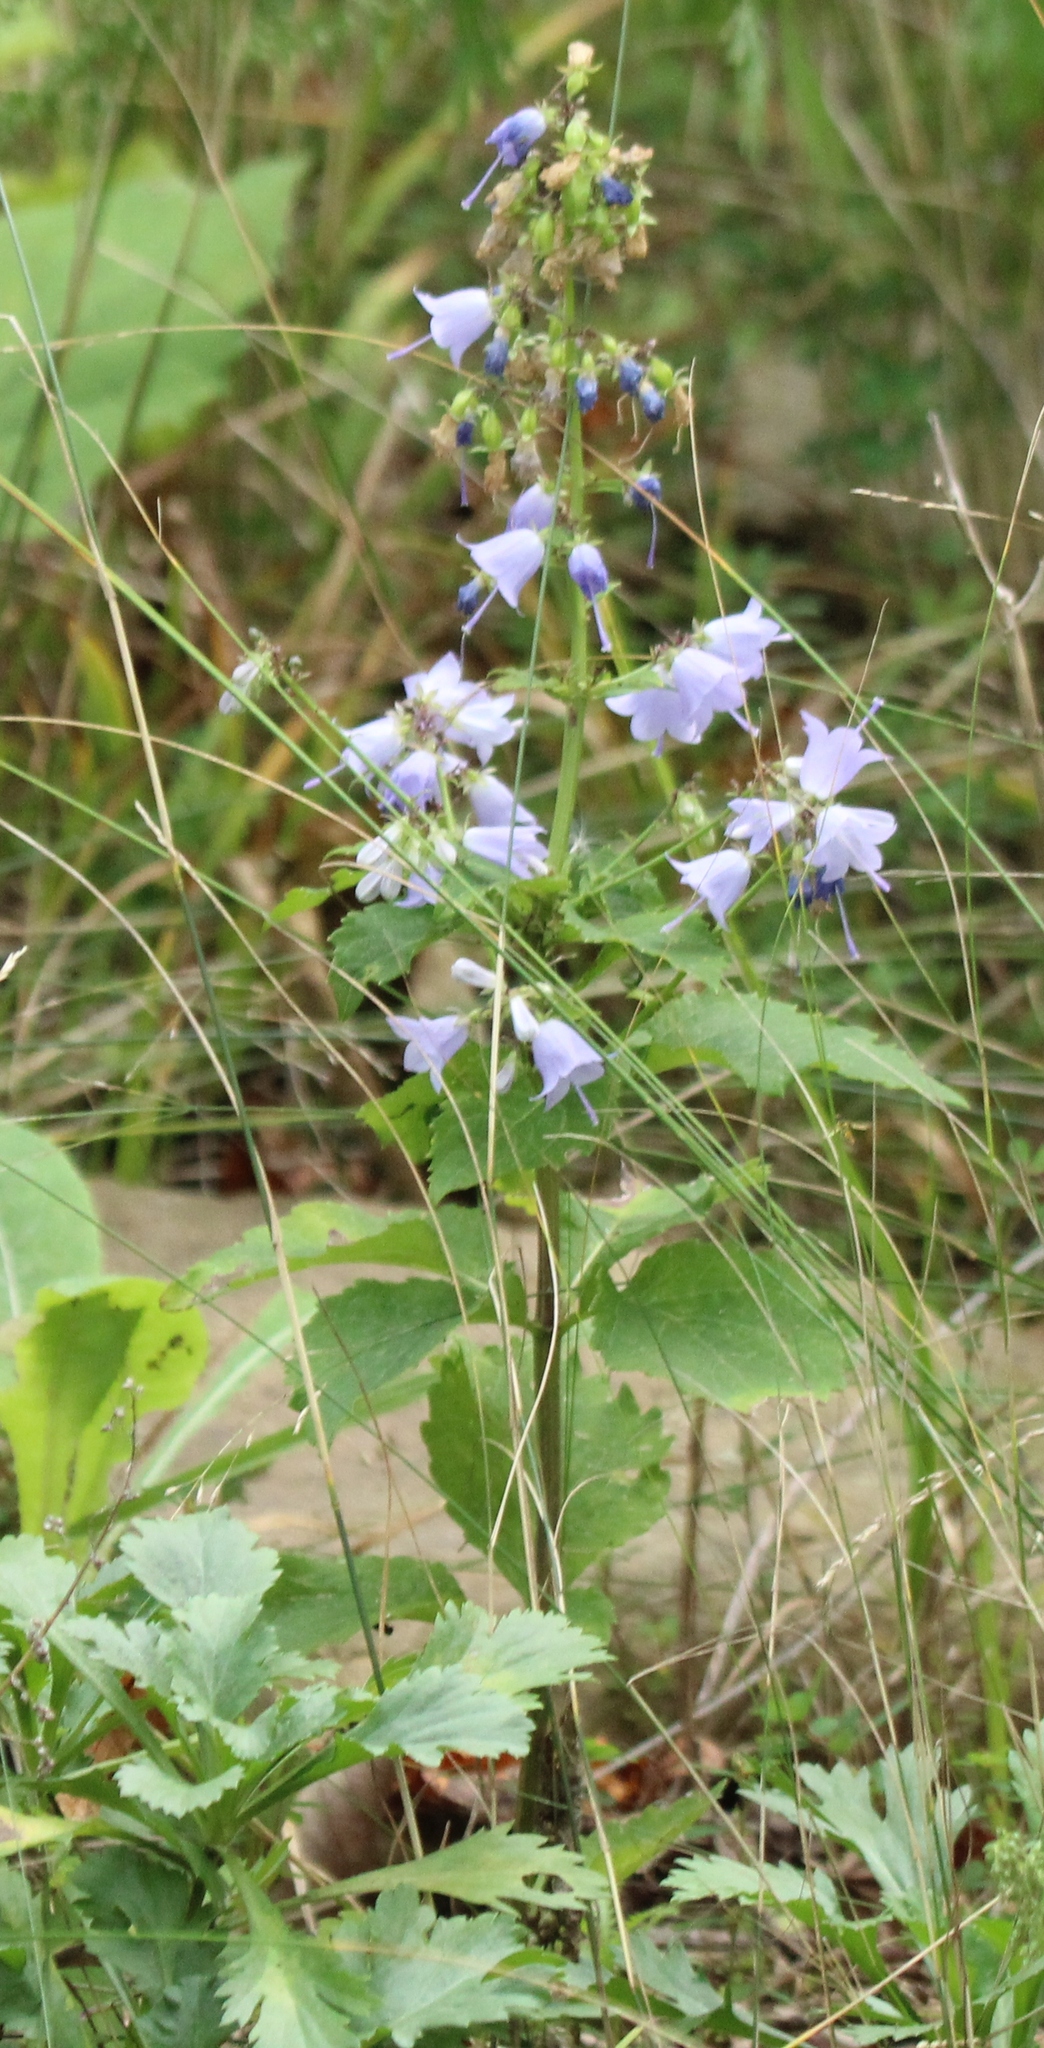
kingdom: Plantae
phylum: Tracheophyta
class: Magnoliopsida
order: Asterales
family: Campanulaceae
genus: Adenophora
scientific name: Adenophora pereskiifolia
